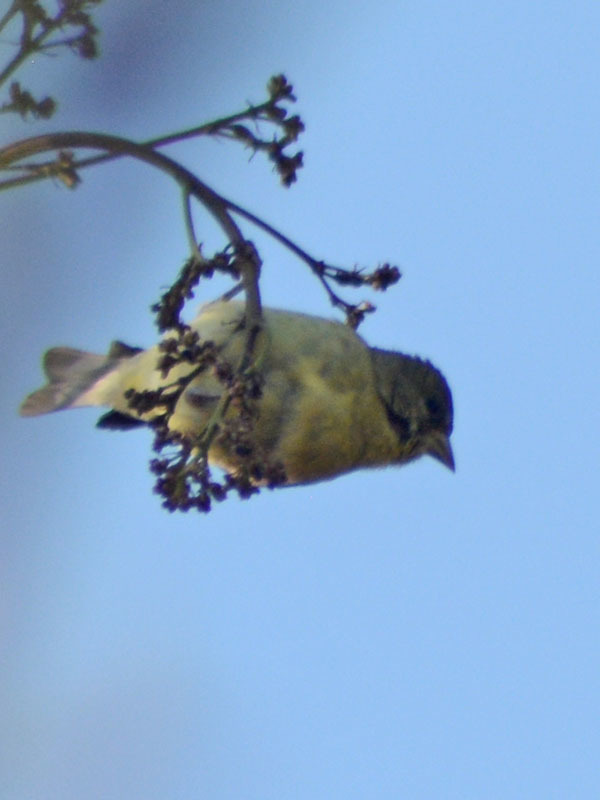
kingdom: Animalia
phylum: Chordata
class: Aves
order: Passeriformes
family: Fringillidae
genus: Spinus
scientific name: Spinus psaltria
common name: Lesser goldfinch
